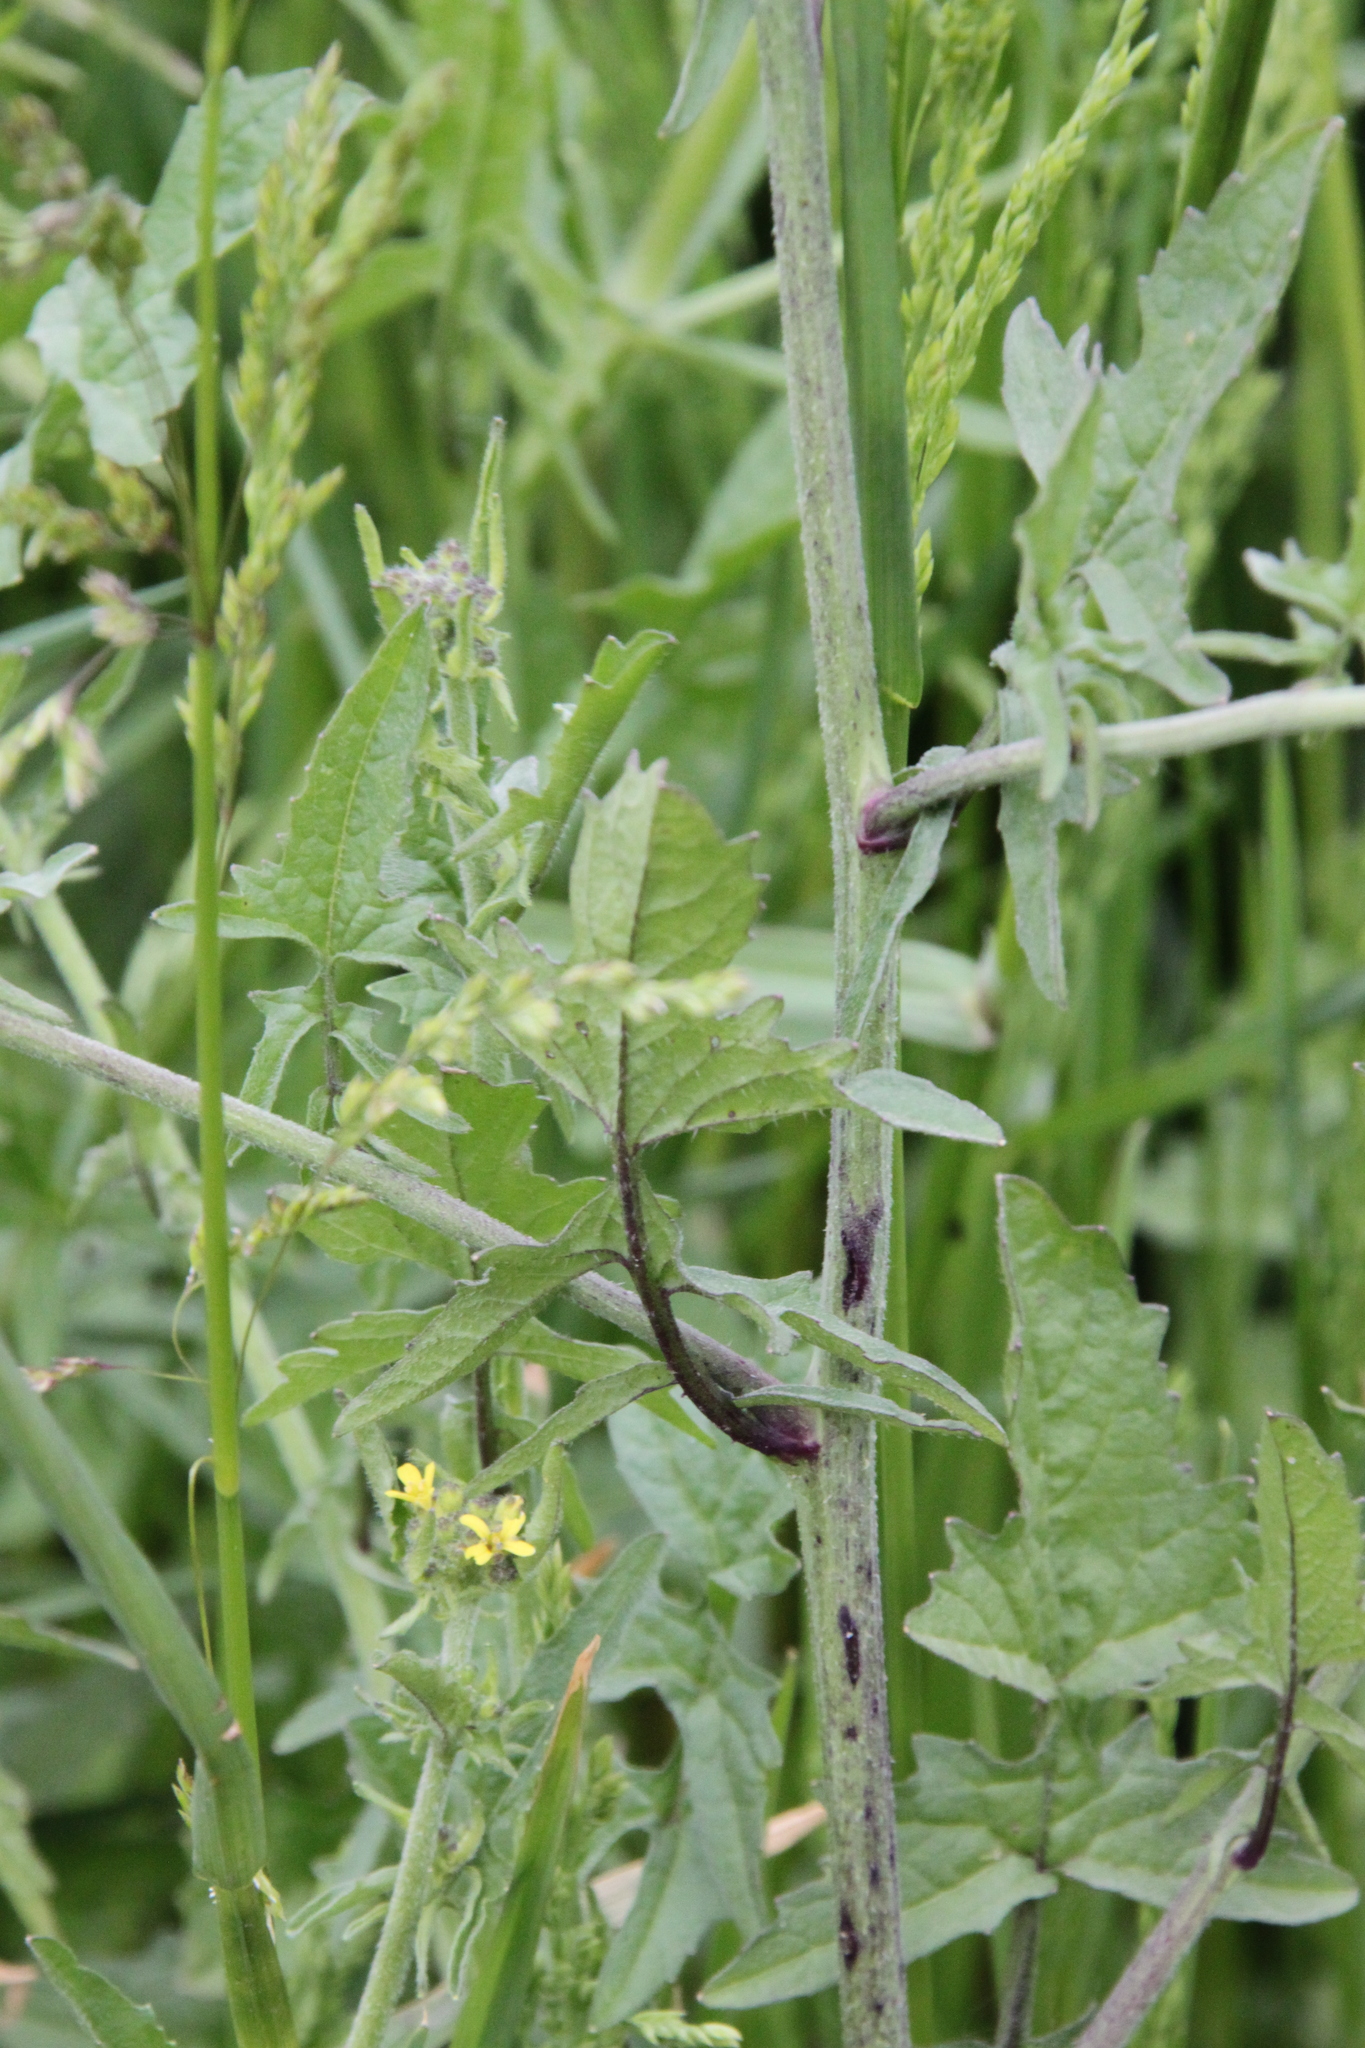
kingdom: Plantae
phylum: Tracheophyta
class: Magnoliopsida
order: Brassicales
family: Brassicaceae
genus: Sisymbrium
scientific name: Sisymbrium officinale
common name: Hedge mustard
